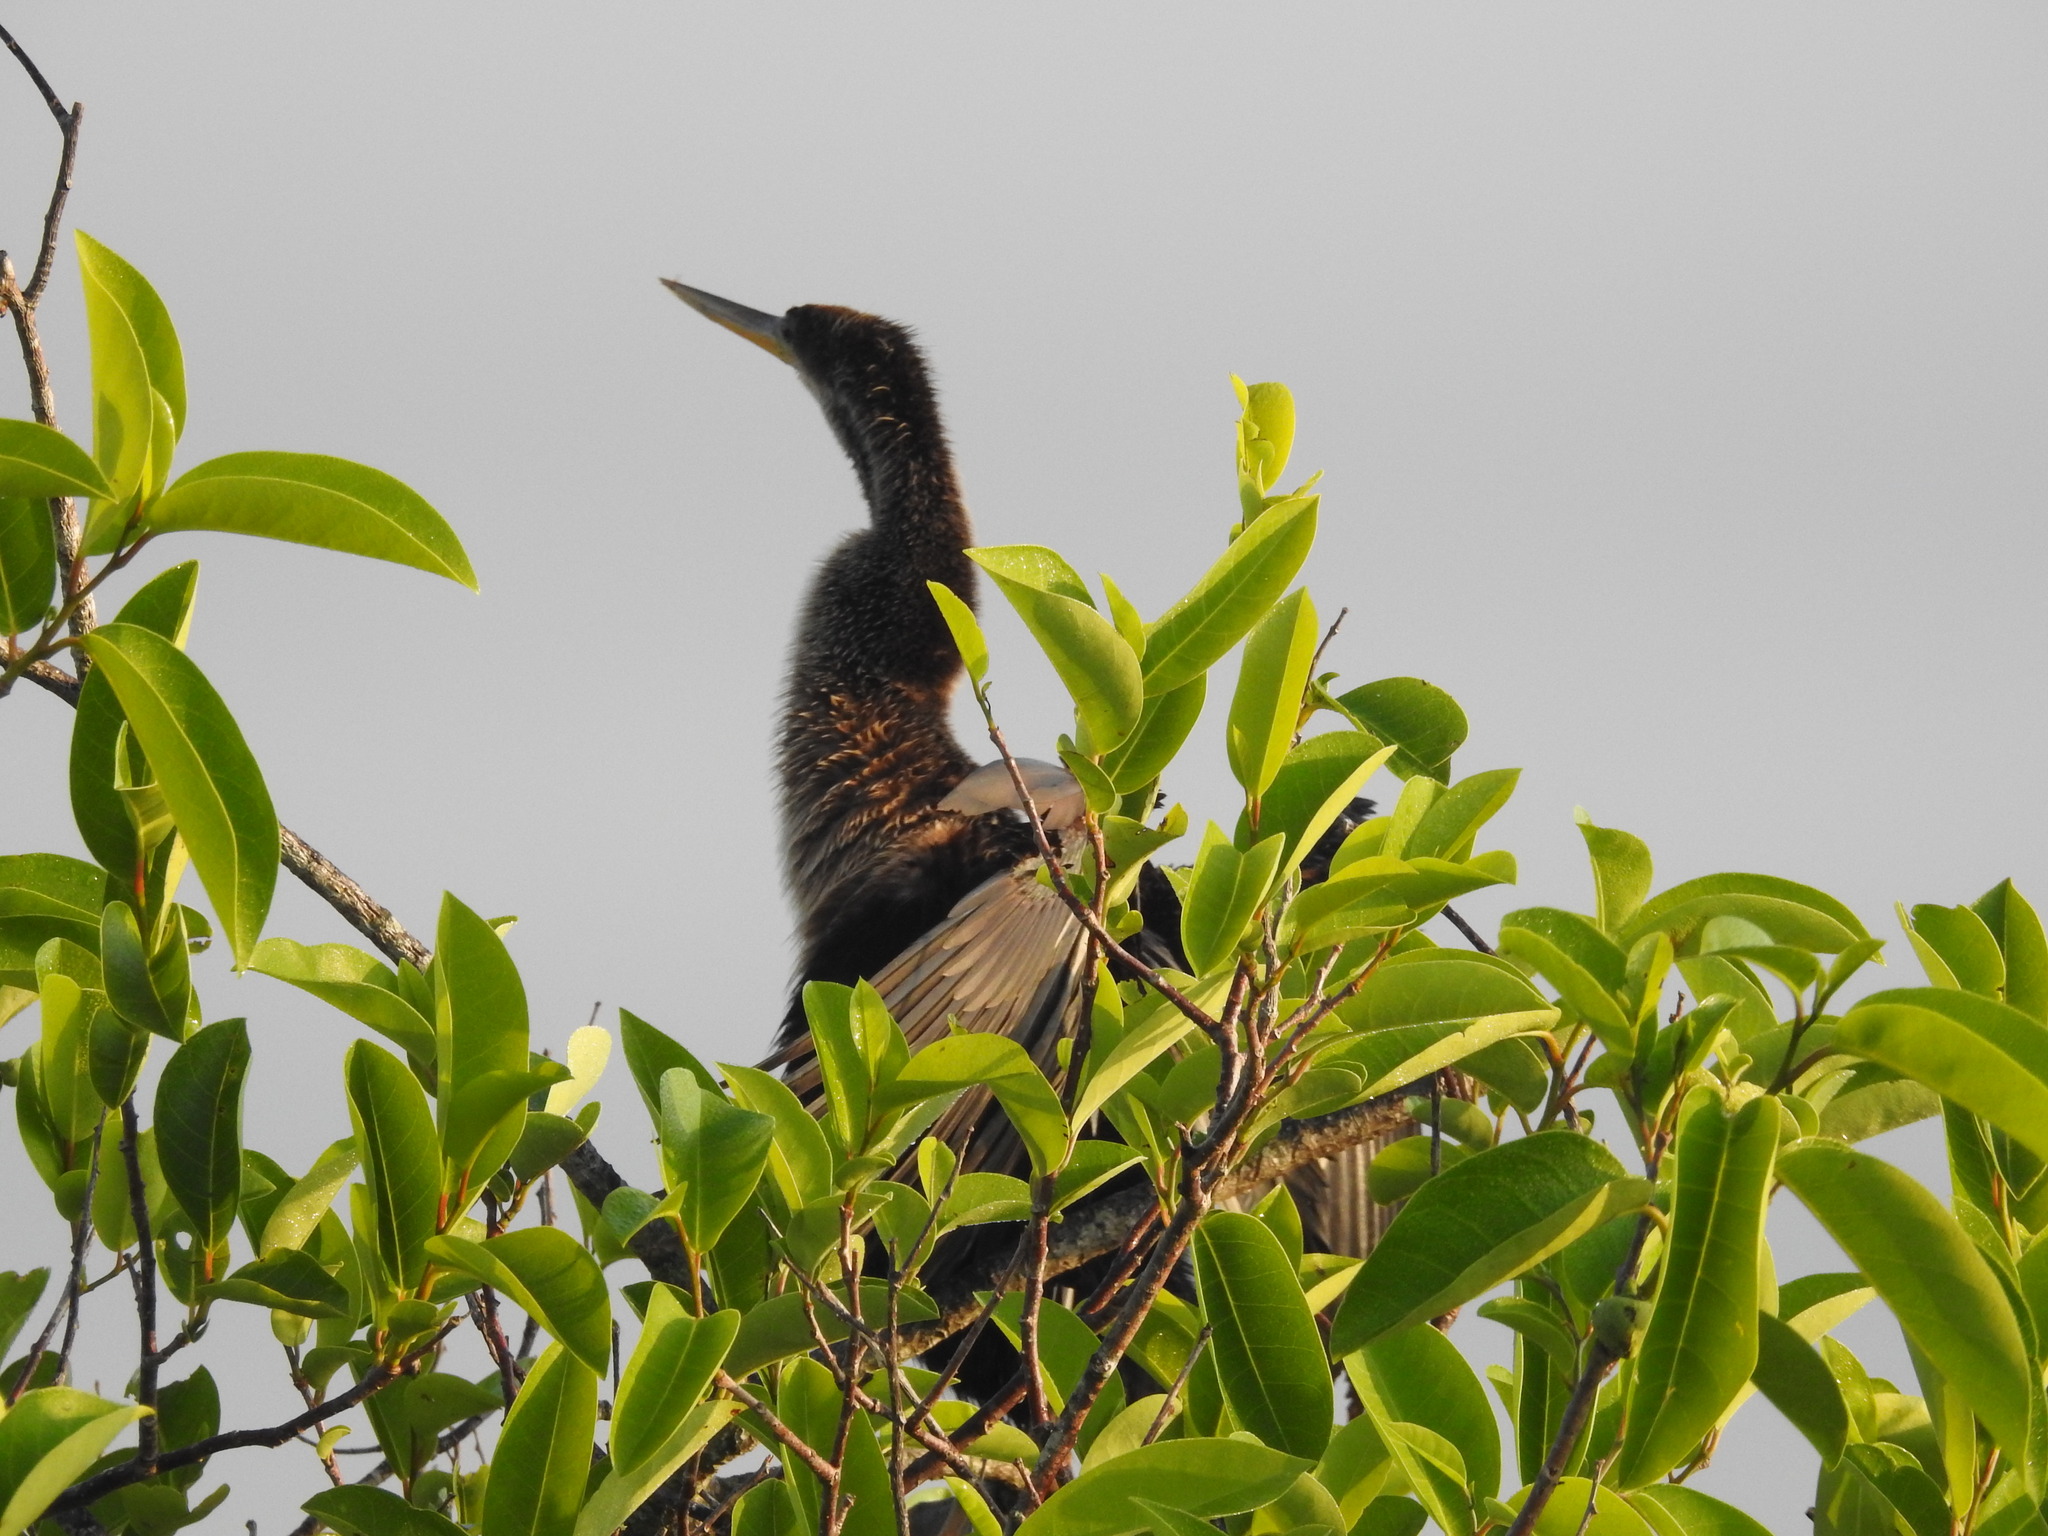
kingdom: Animalia
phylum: Chordata
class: Aves
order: Suliformes
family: Anhingidae
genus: Anhinga
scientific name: Anhinga anhinga
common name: Anhinga
